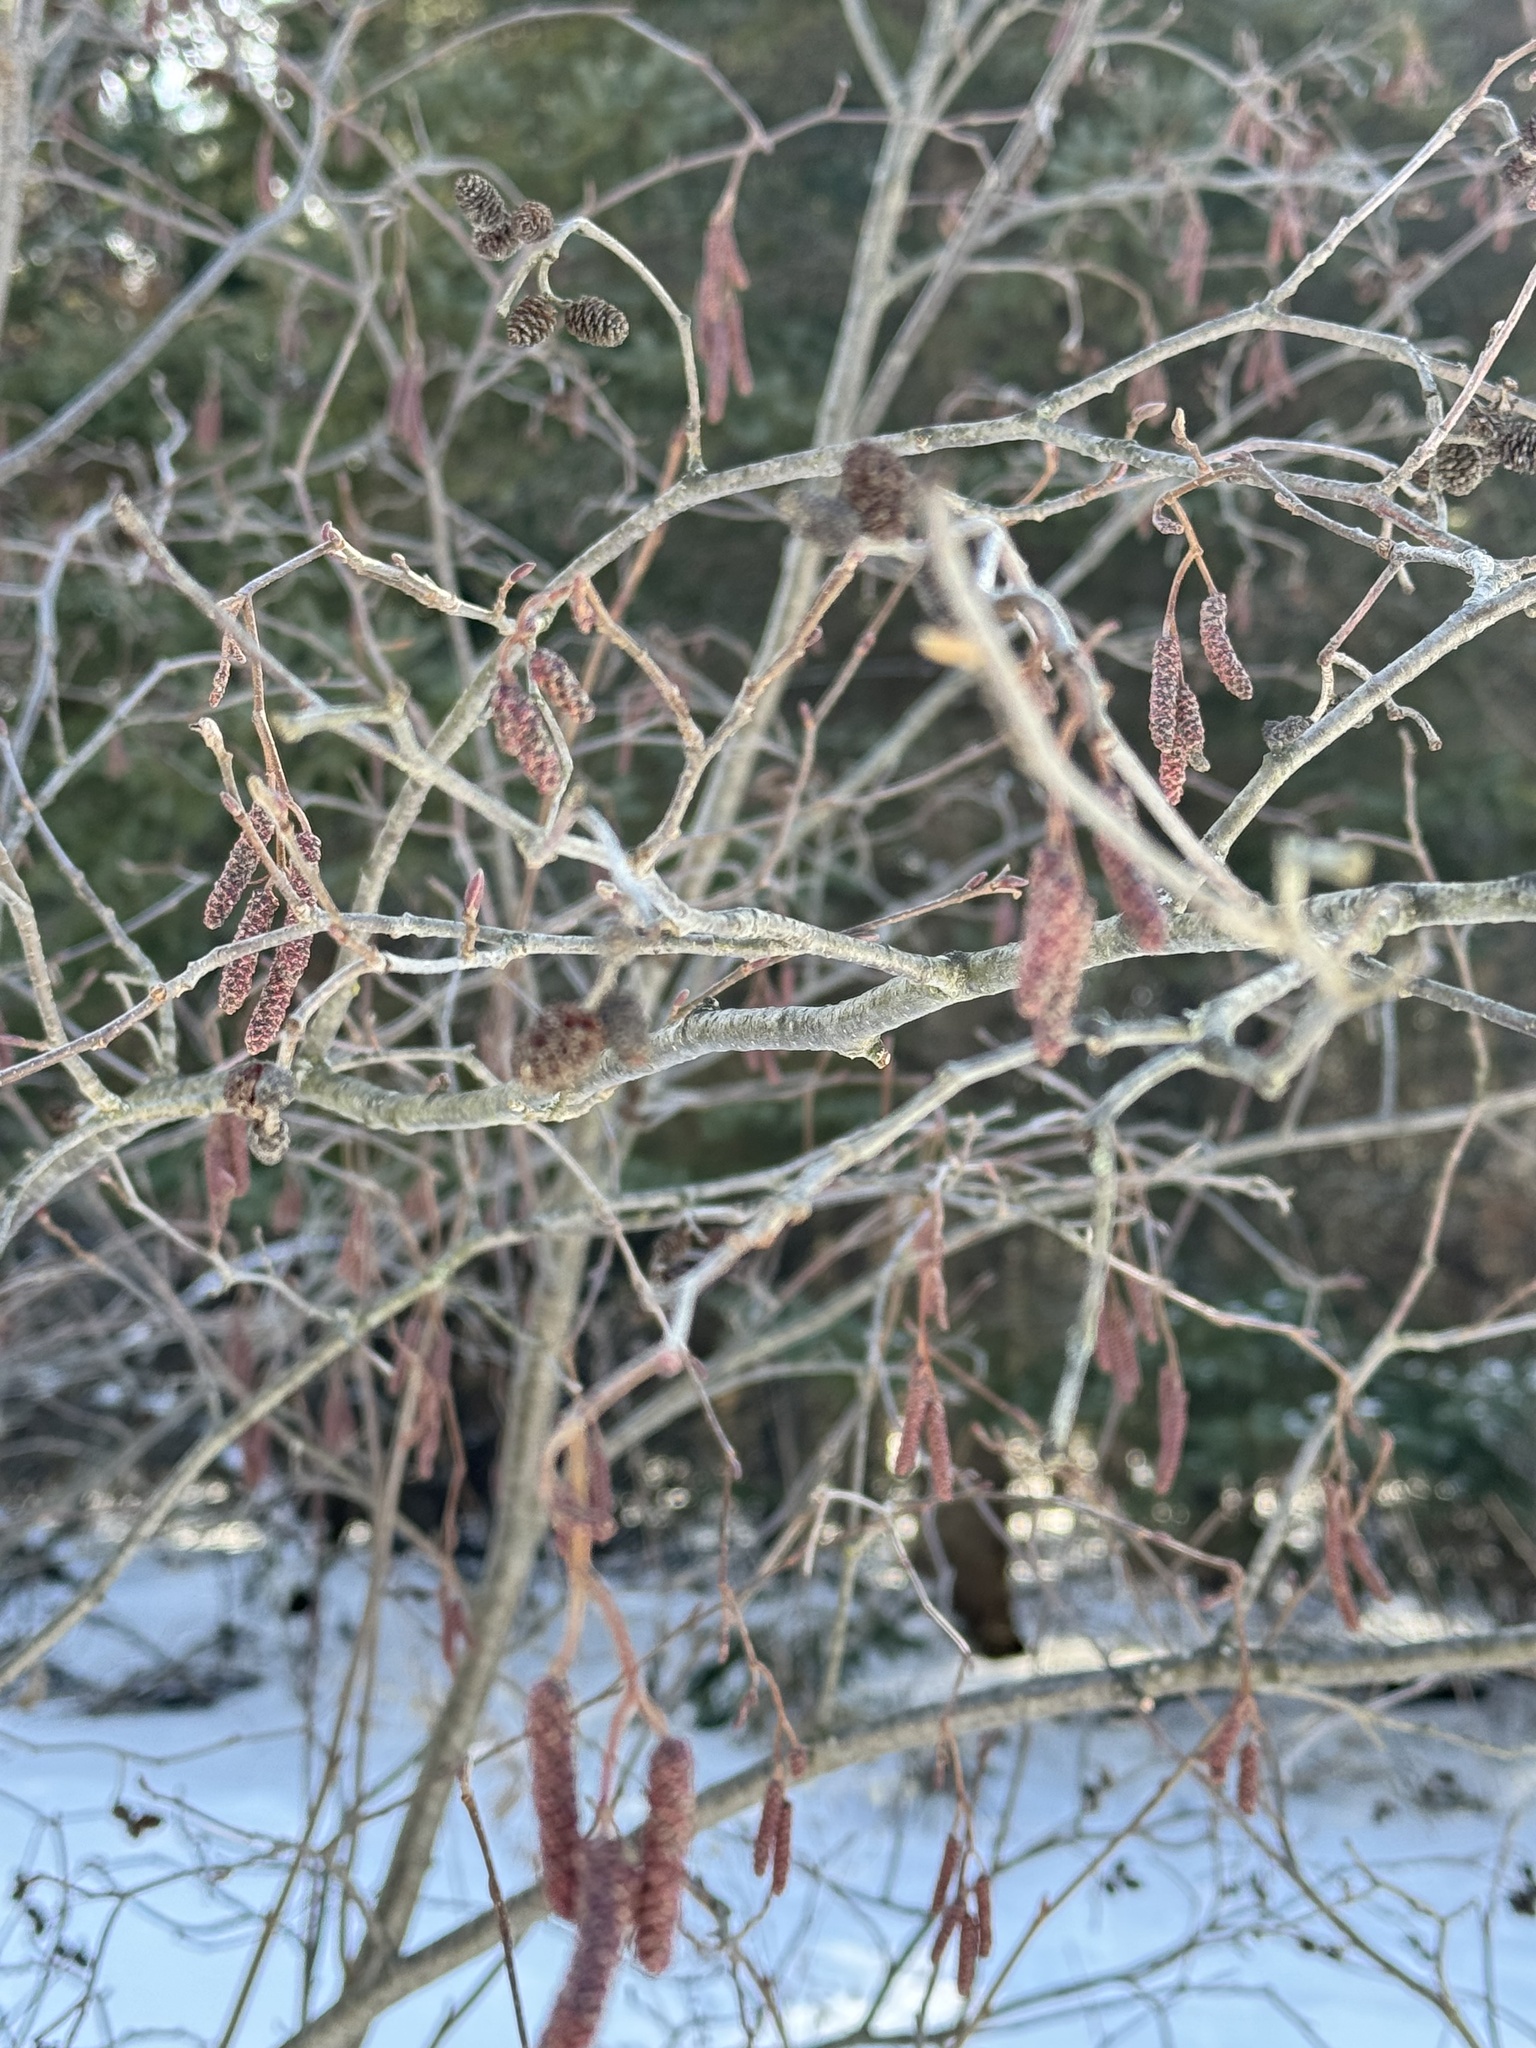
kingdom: Plantae
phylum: Tracheophyta
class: Magnoliopsida
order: Fagales
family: Betulaceae
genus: Alnus
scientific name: Alnus incana
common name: Grey alder
